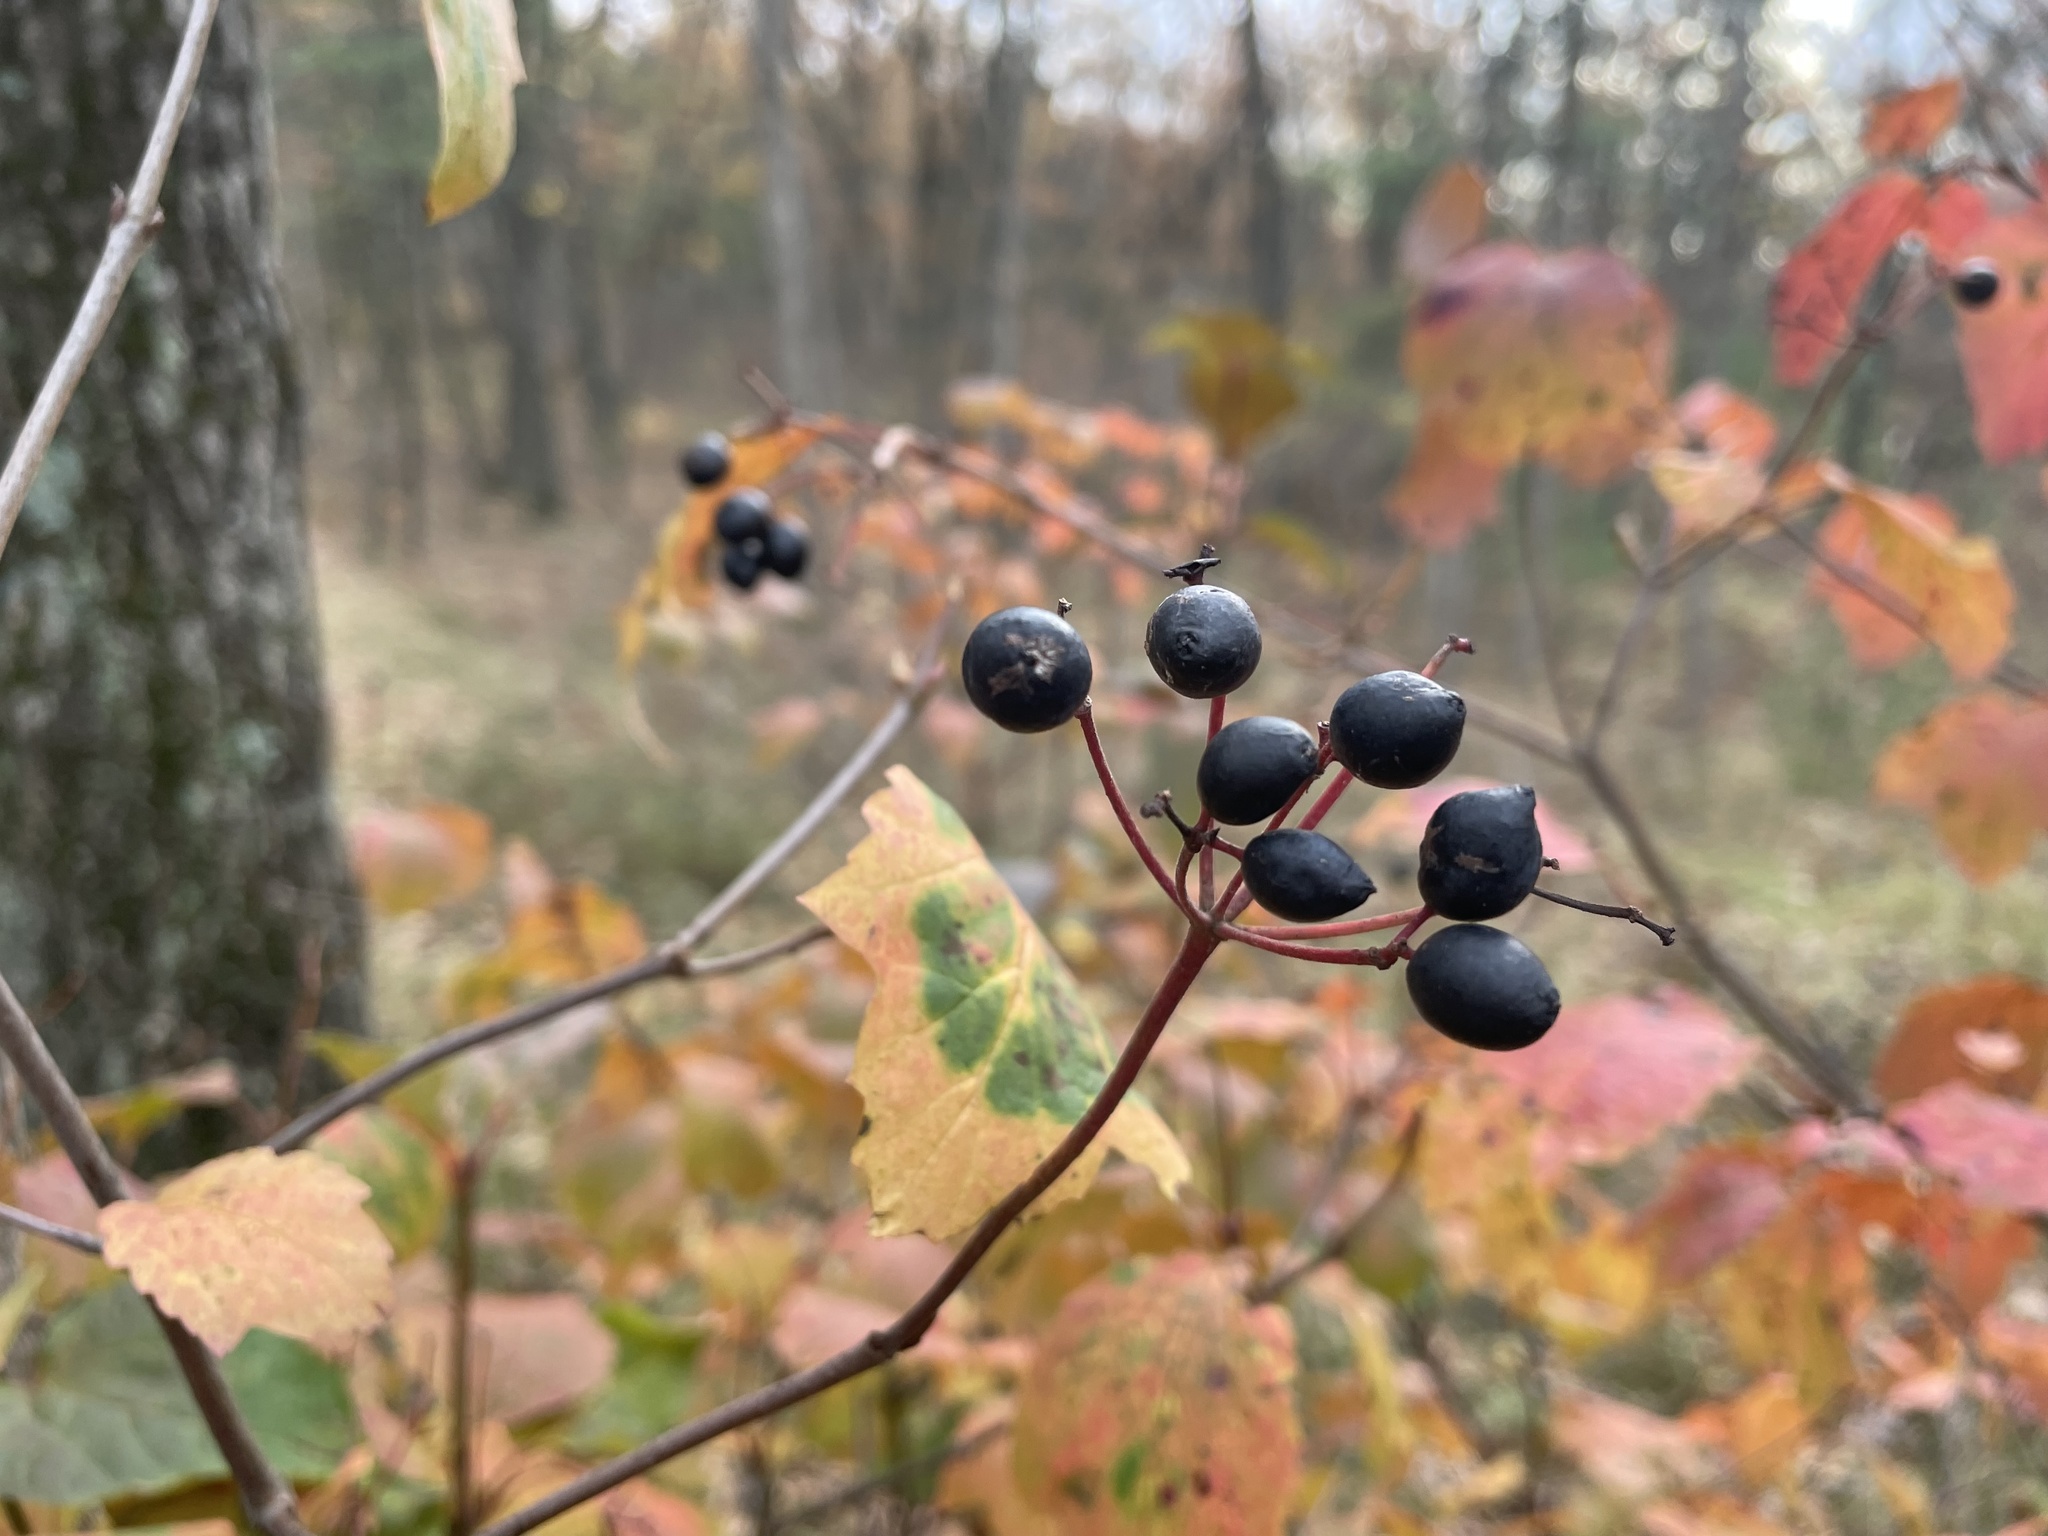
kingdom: Plantae
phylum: Tracheophyta
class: Magnoliopsida
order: Dipsacales
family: Viburnaceae
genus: Viburnum
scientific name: Viburnum acerifolium
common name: Dockmackie
